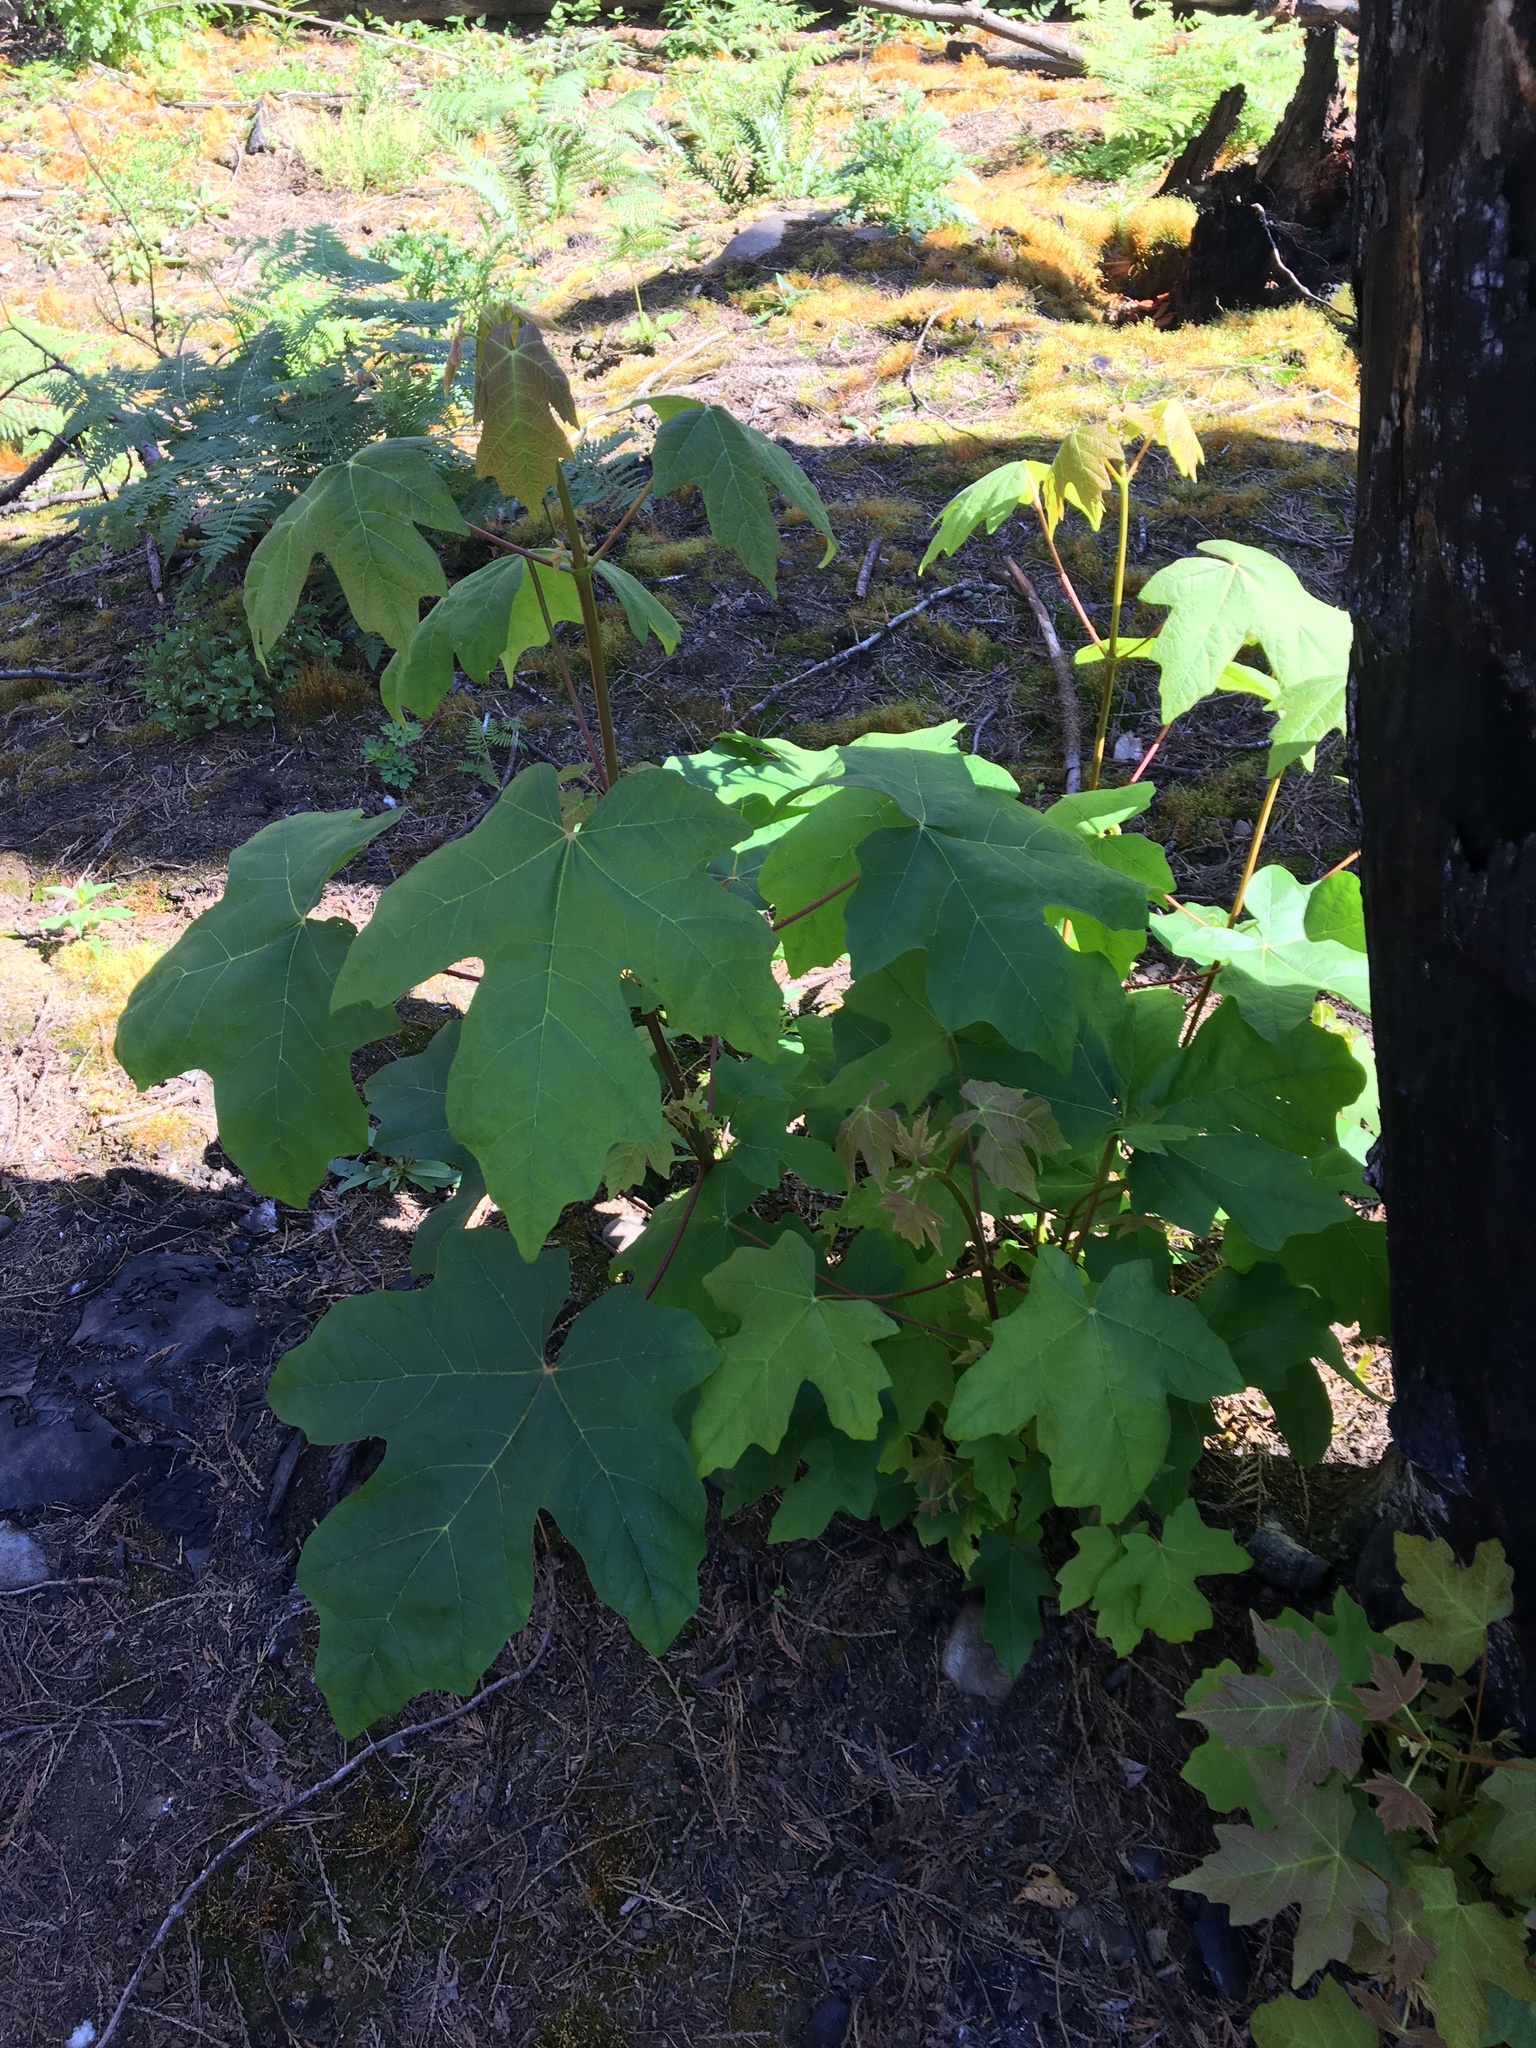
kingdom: Plantae
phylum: Tracheophyta
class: Magnoliopsida
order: Sapindales
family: Sapindaceae
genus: Acer
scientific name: Acer macrophyllum
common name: Oregon maple
